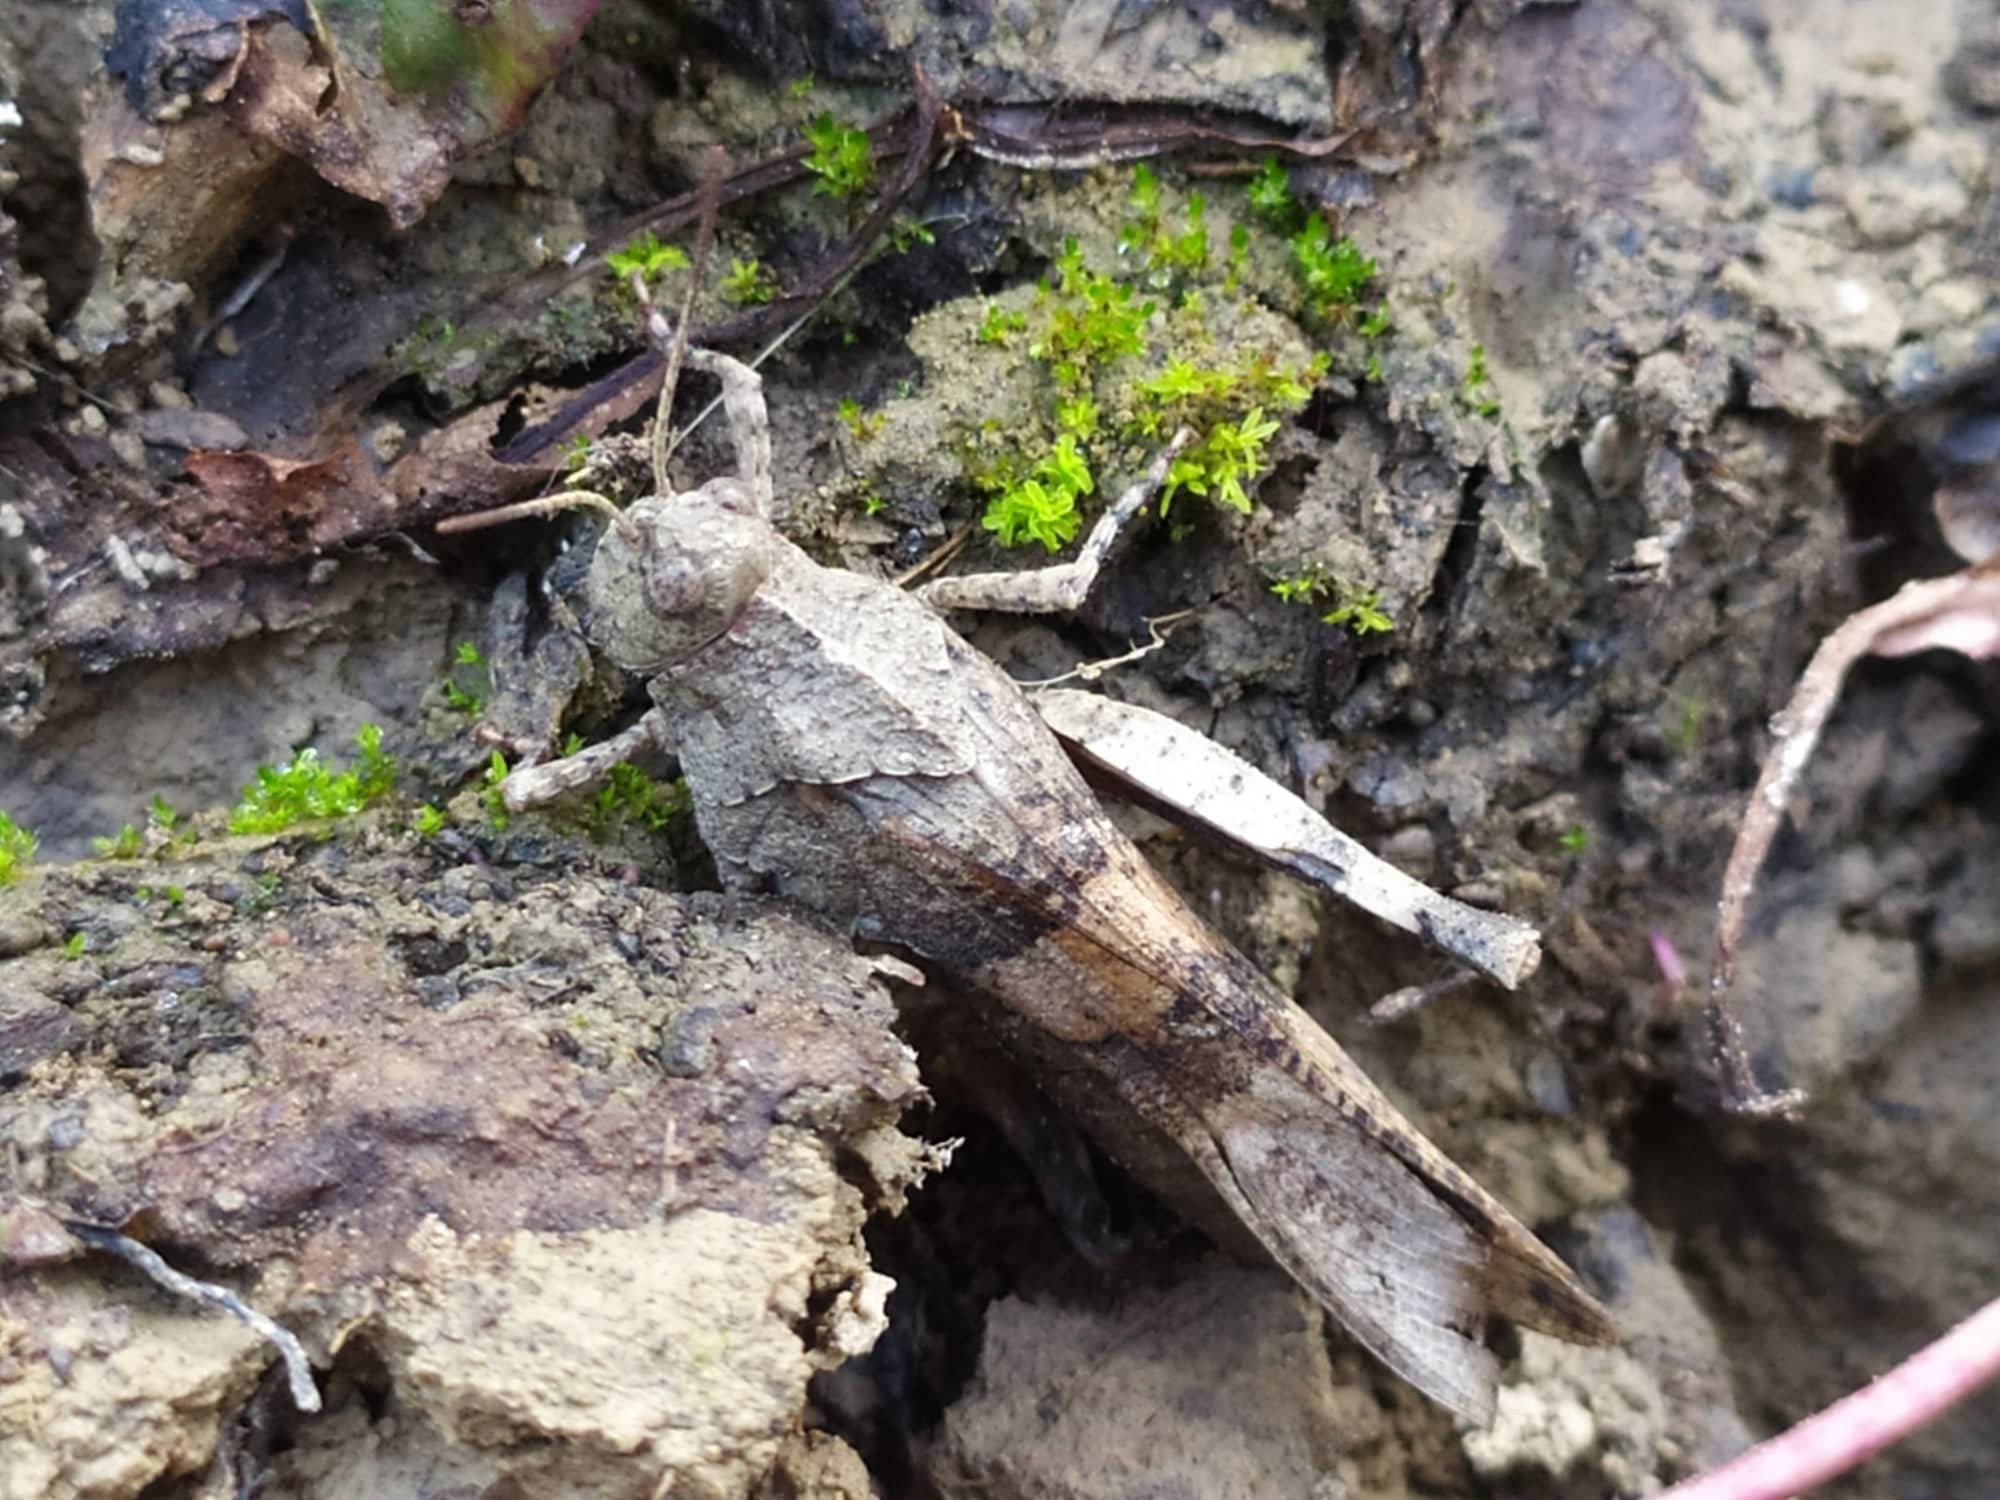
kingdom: Animalia
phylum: Arthropoda
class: Insecta
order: Orthoptera
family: Acrididae
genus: Oedipoda
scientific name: Oedipoda caerulescens
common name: Blue-winged grasshopper
